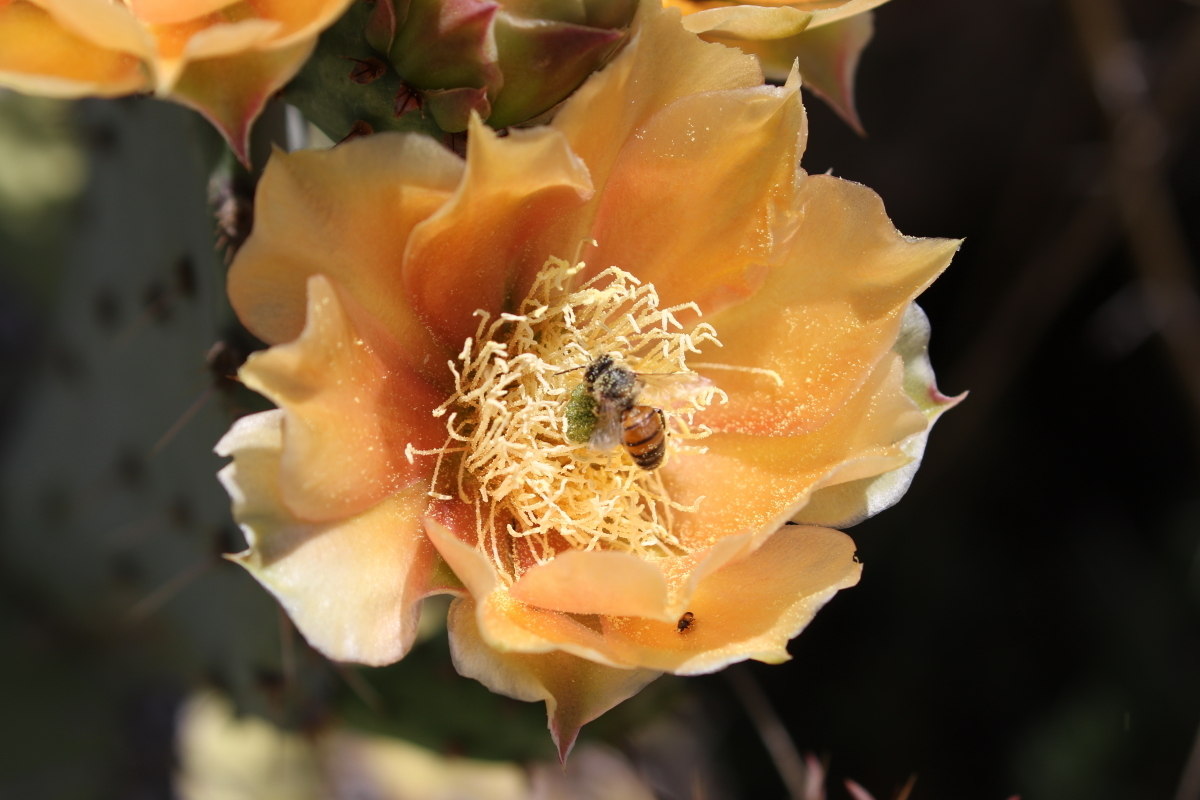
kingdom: Animalia
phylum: Arthropoda
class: Insecta
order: Hymenoptera
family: Apidae
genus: Apis
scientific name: Apis mellifera
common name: Honey bee
